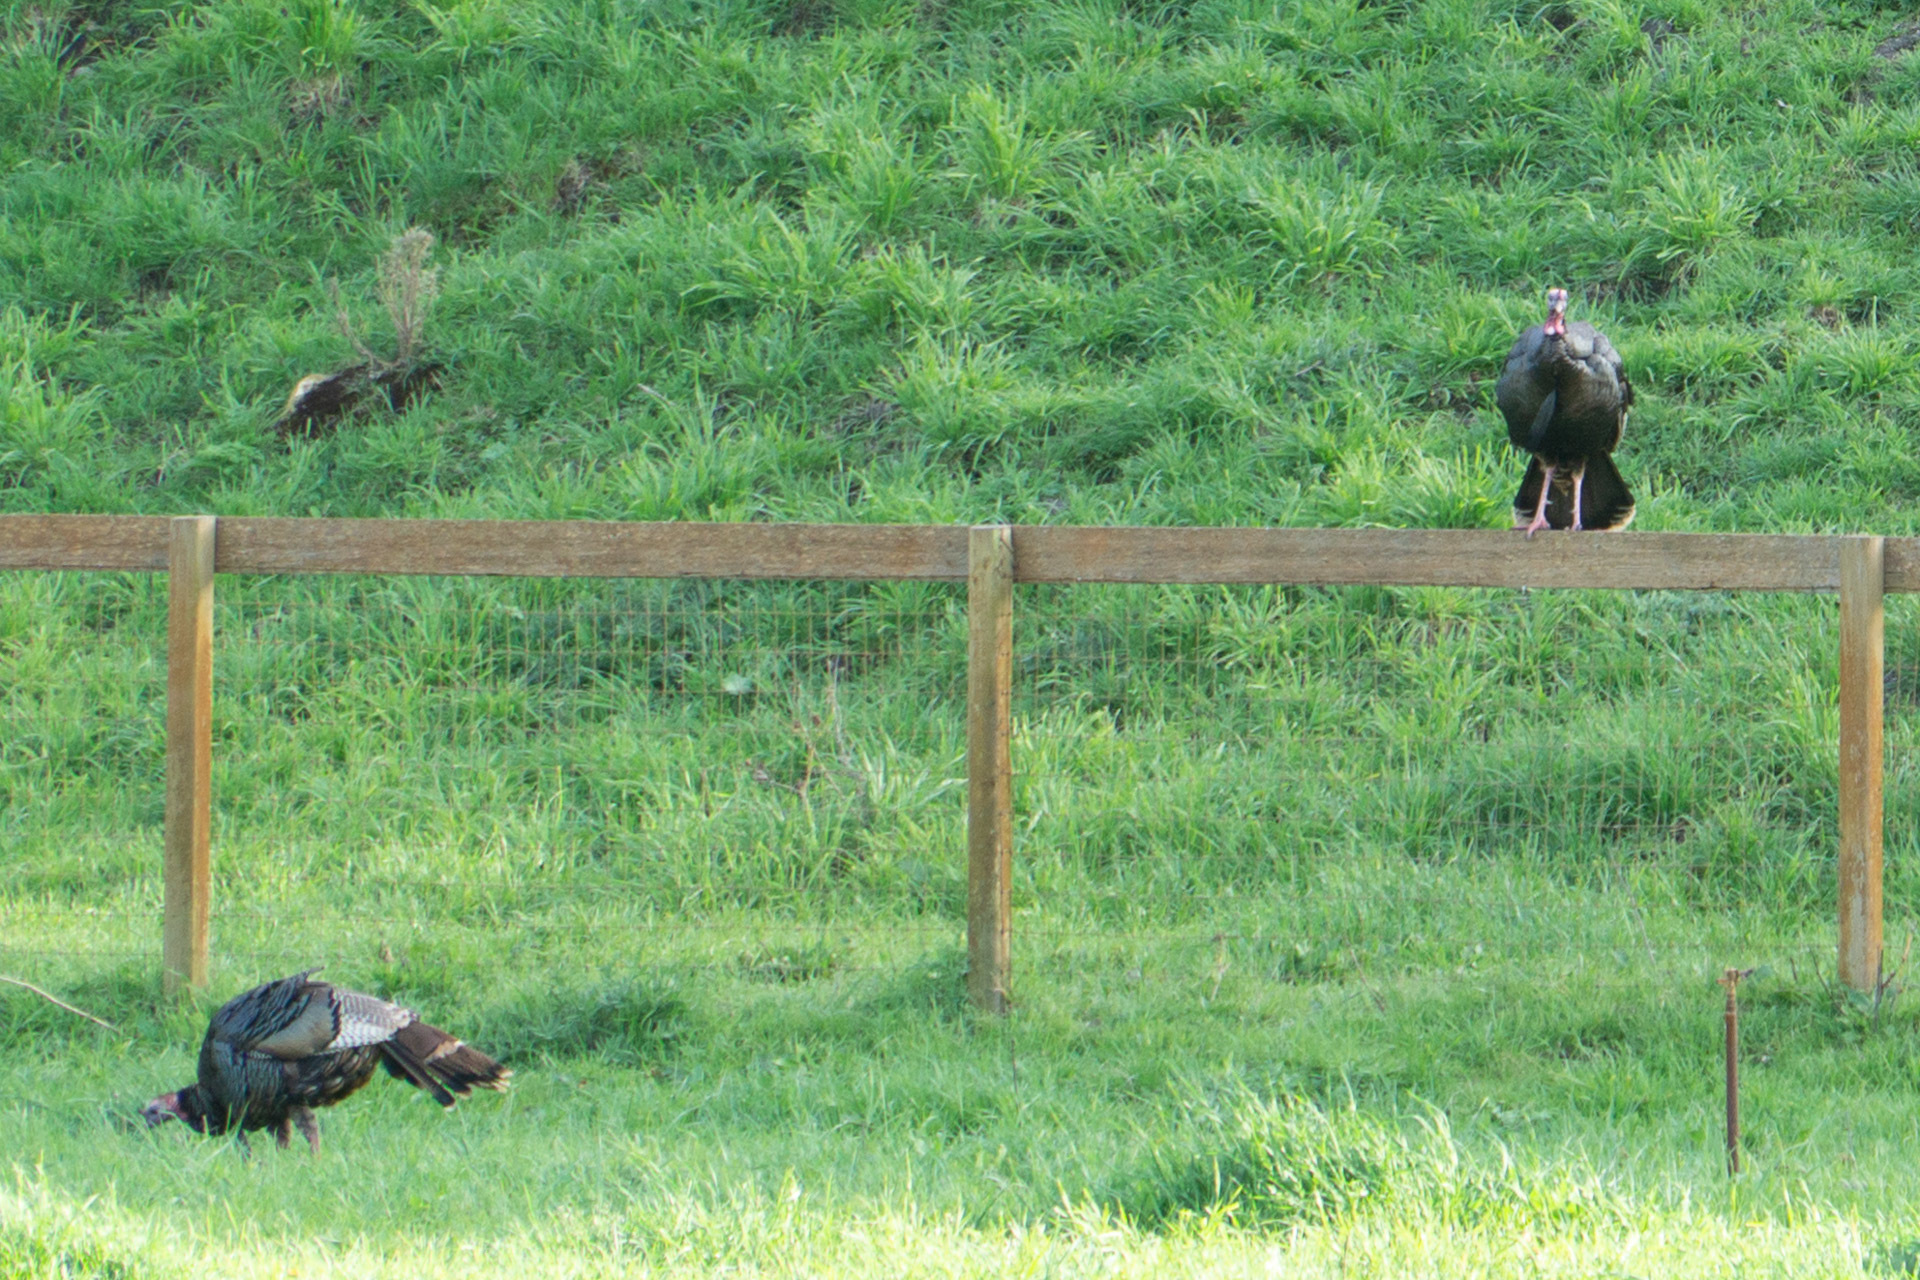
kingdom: Animalia
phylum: Chordata
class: Aves
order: Galliformes
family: Phasianidae
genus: Meleagris
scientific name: Meleagris gallopavo
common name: Wild turkey
